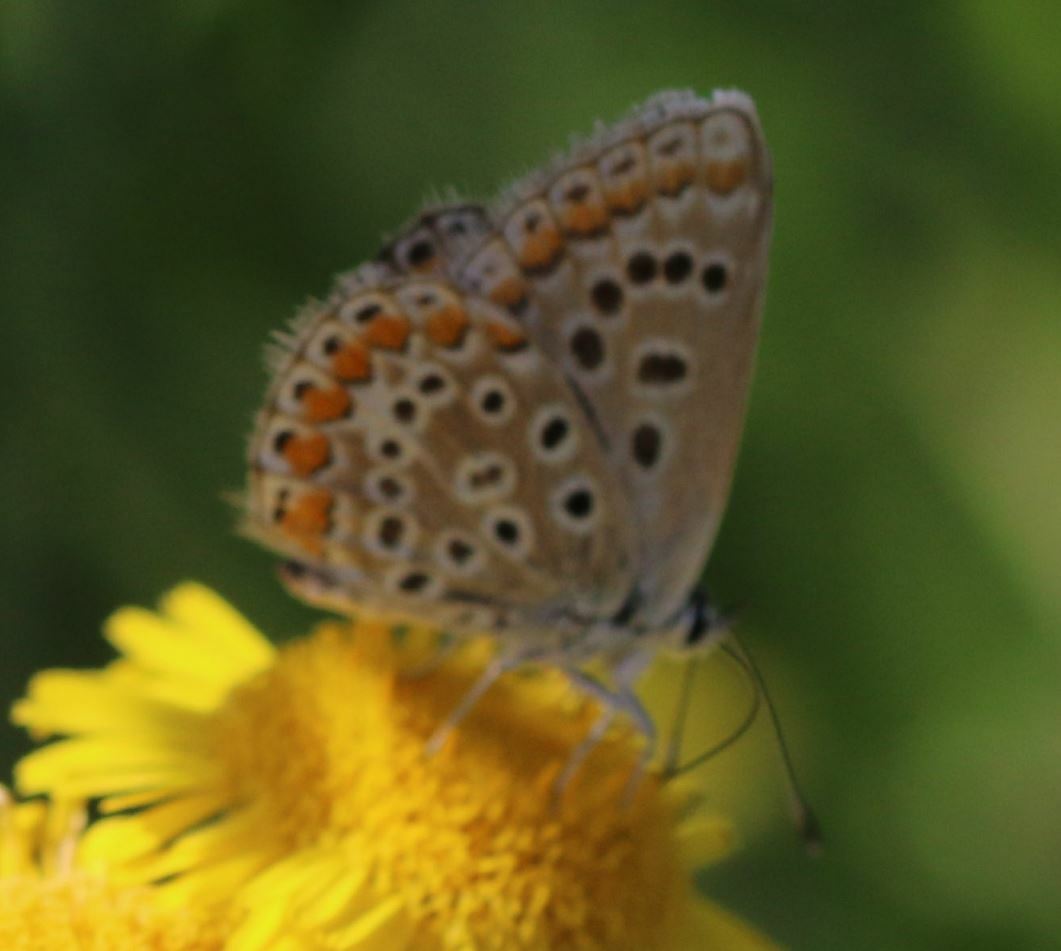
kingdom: Animalia
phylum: Arthropoda
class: Insecta
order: Lepidoptera
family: Lycaenidae
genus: Polyommatus
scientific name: Polyommatus icarus
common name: Common blue
